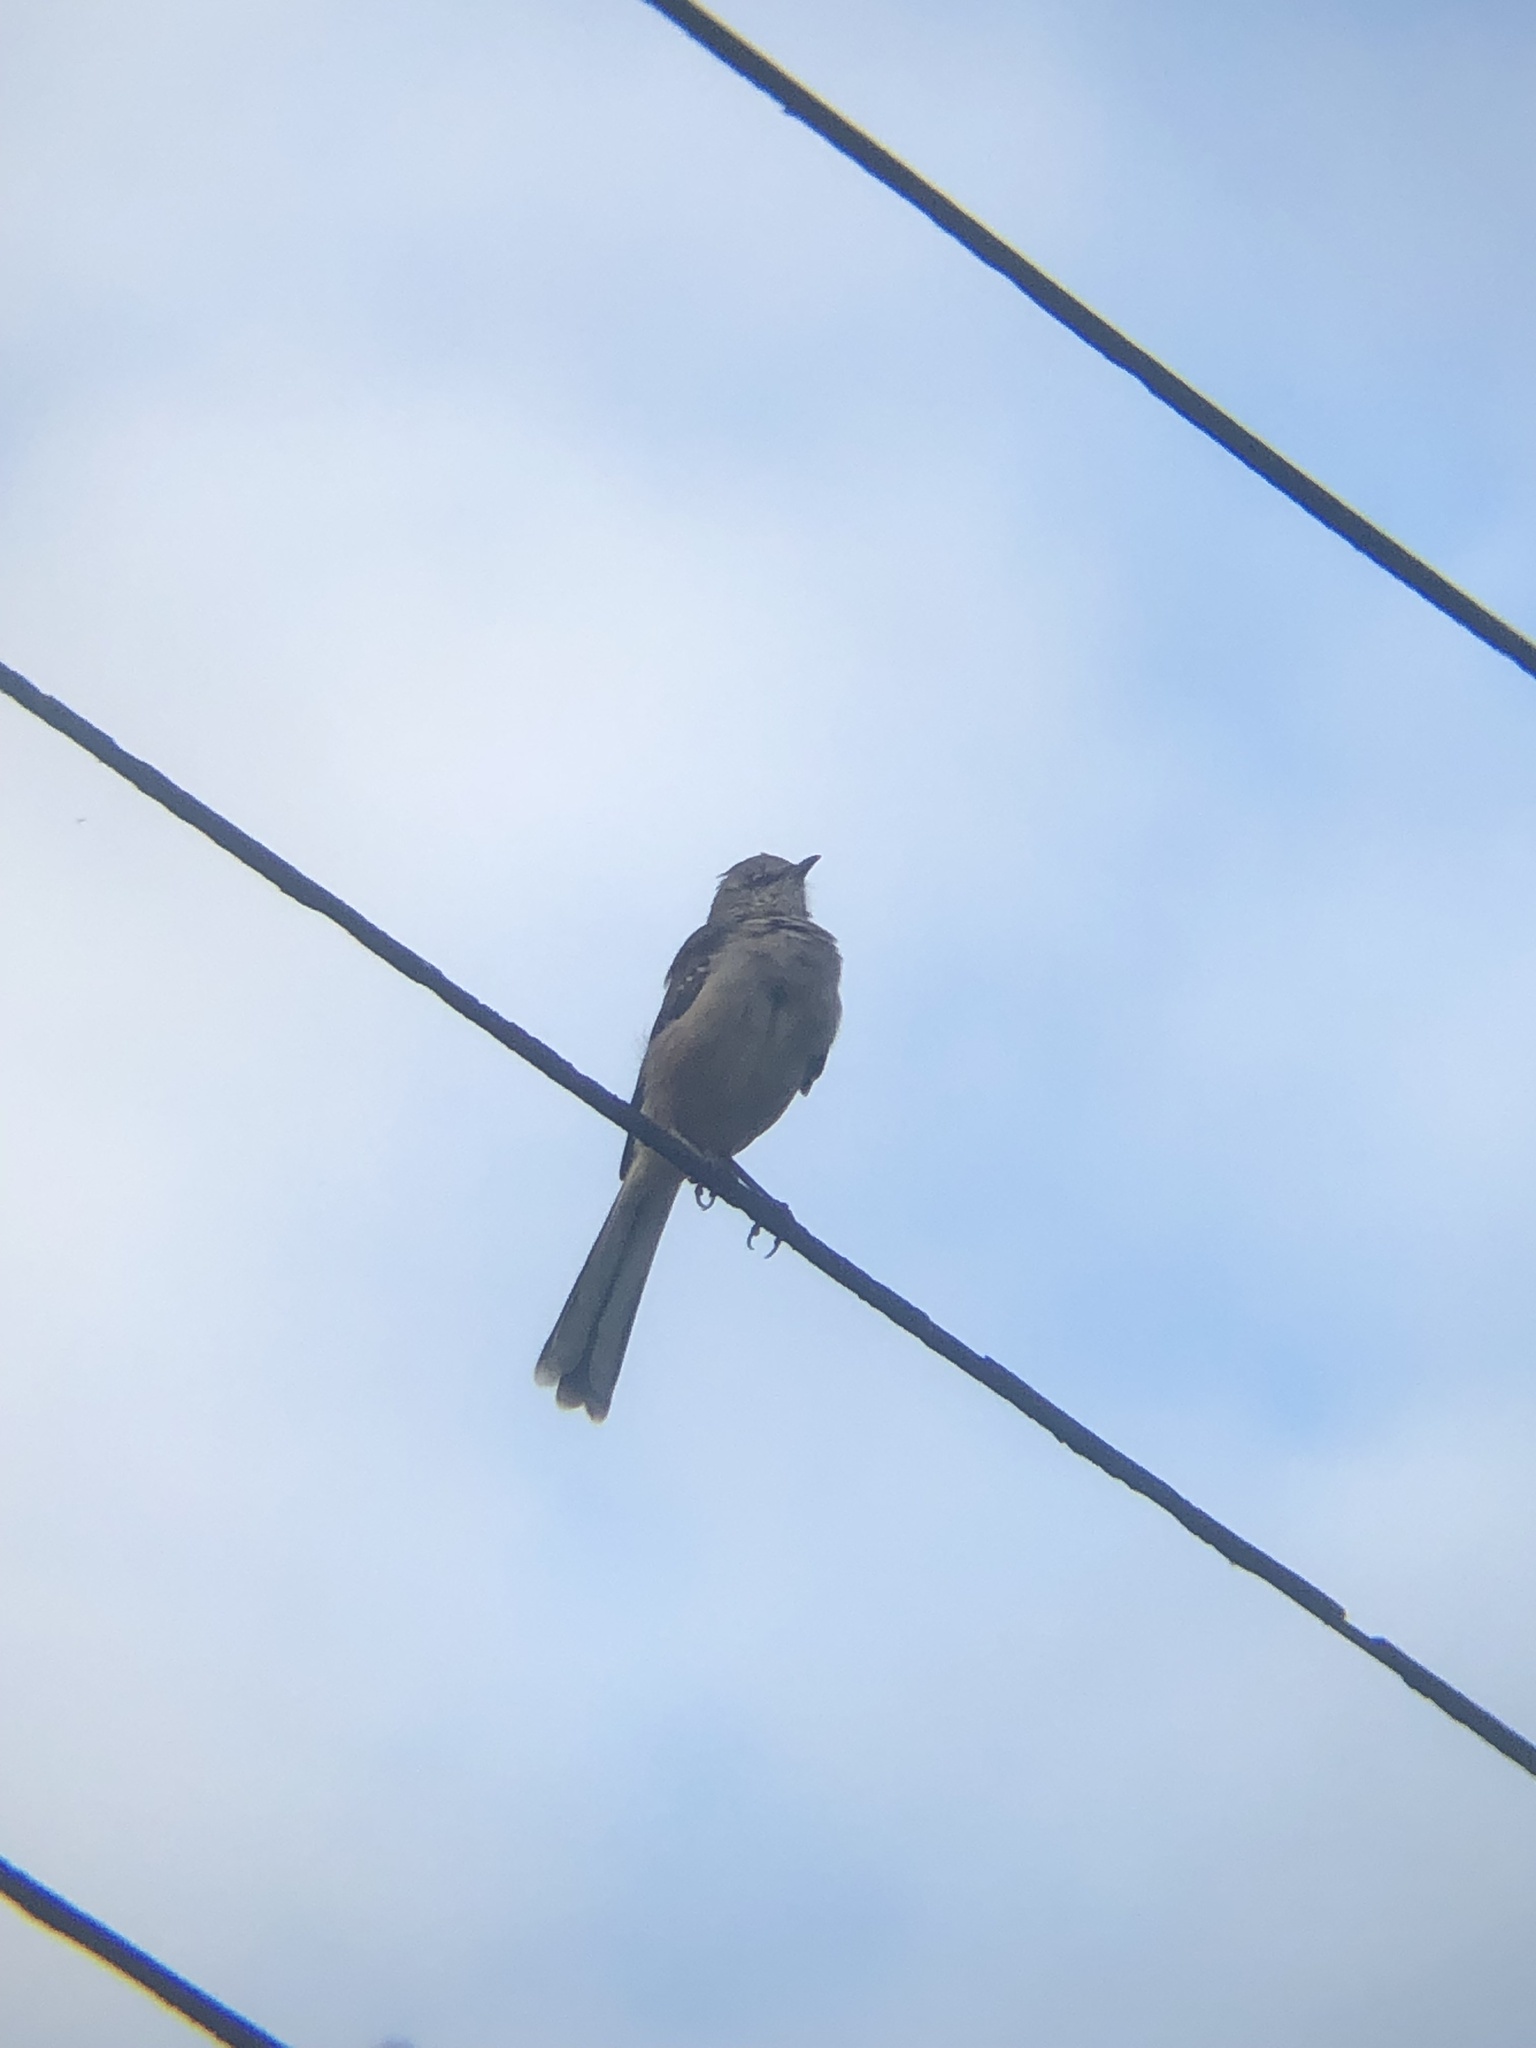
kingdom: Animalia
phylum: Chordata
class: Aves
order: Passeriformes
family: Mimidae
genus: Mimus
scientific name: Mimus polyglottos
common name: Northern mockingbird
